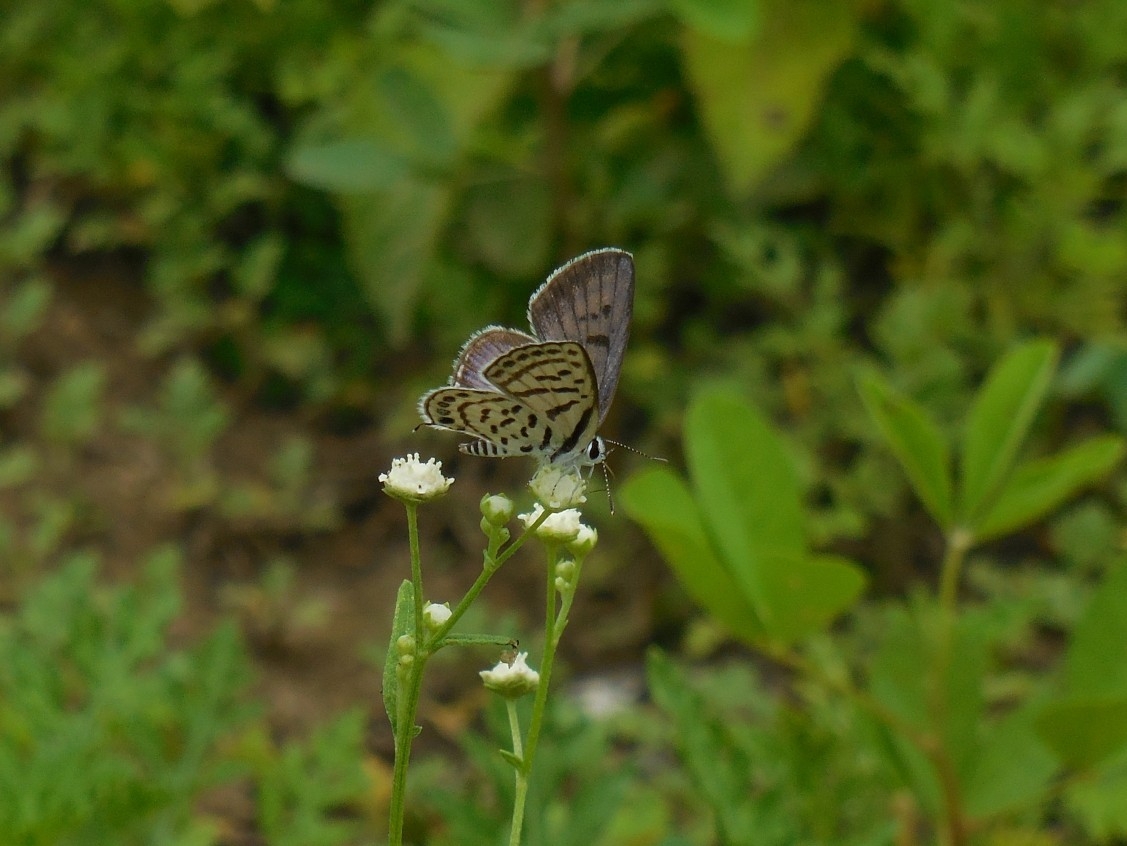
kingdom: Animalia
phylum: Arthropoda
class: Insecta
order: Lepidoptera
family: Lycaenidae
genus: Tarucus
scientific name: Tarucus balkanica
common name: Little tiger blue
